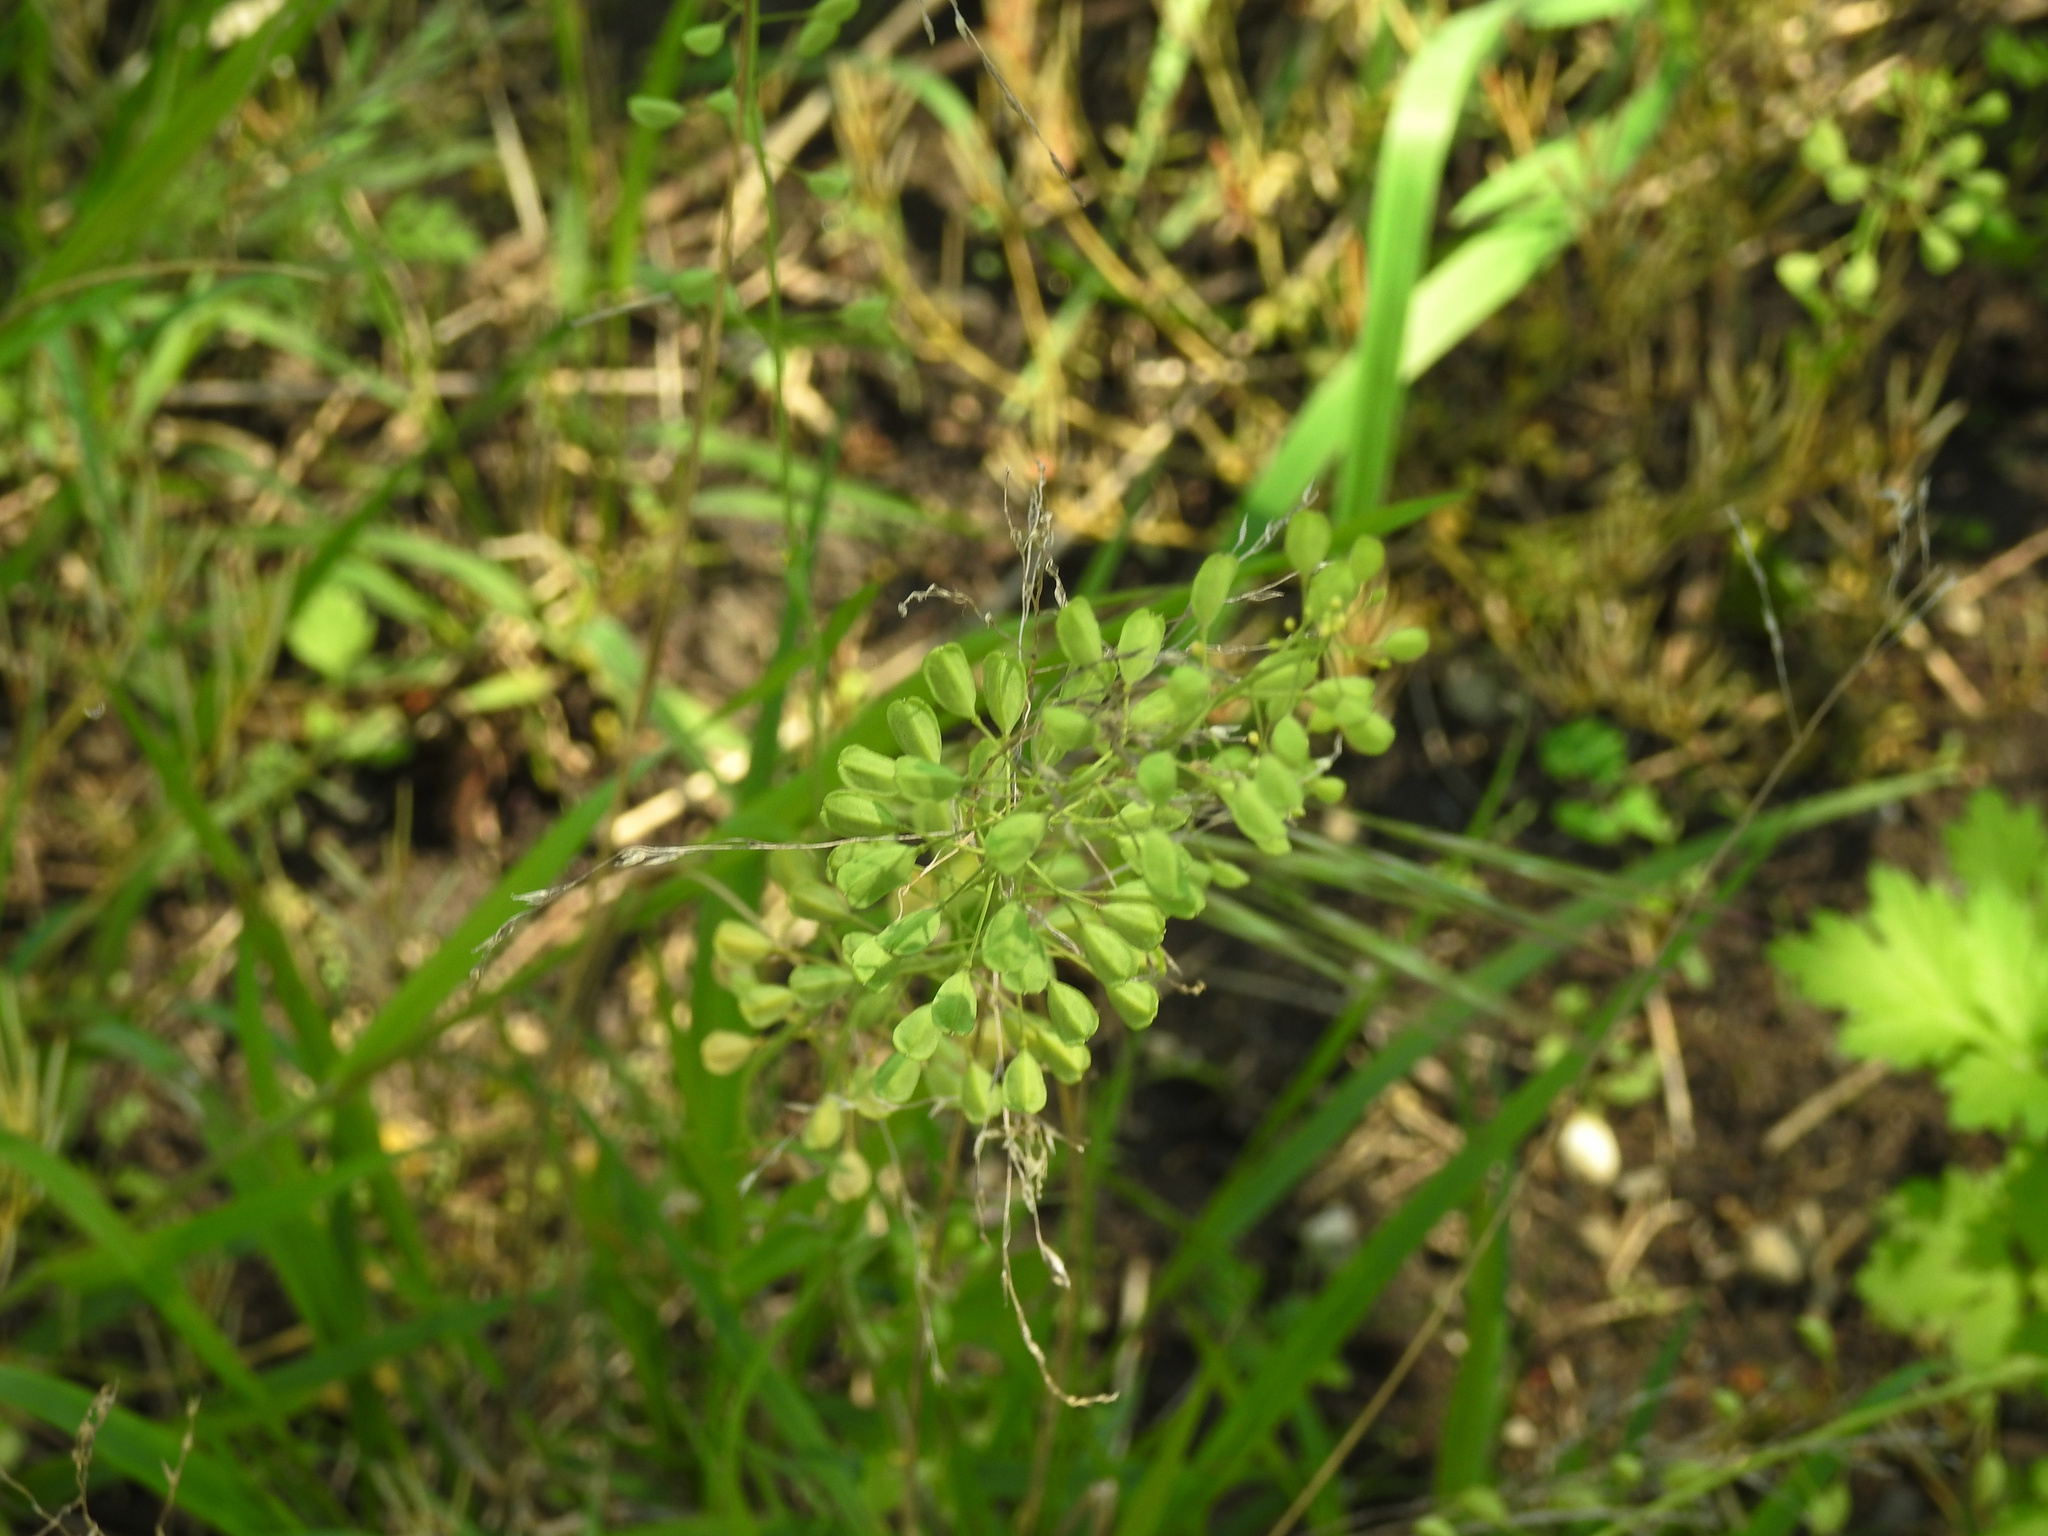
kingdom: Plantae
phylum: Tracheophyta
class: Magnoliopsida
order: Brassicales
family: Brassicaceae
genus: Mummenhoffia
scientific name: Mummenhoffia alliacea
